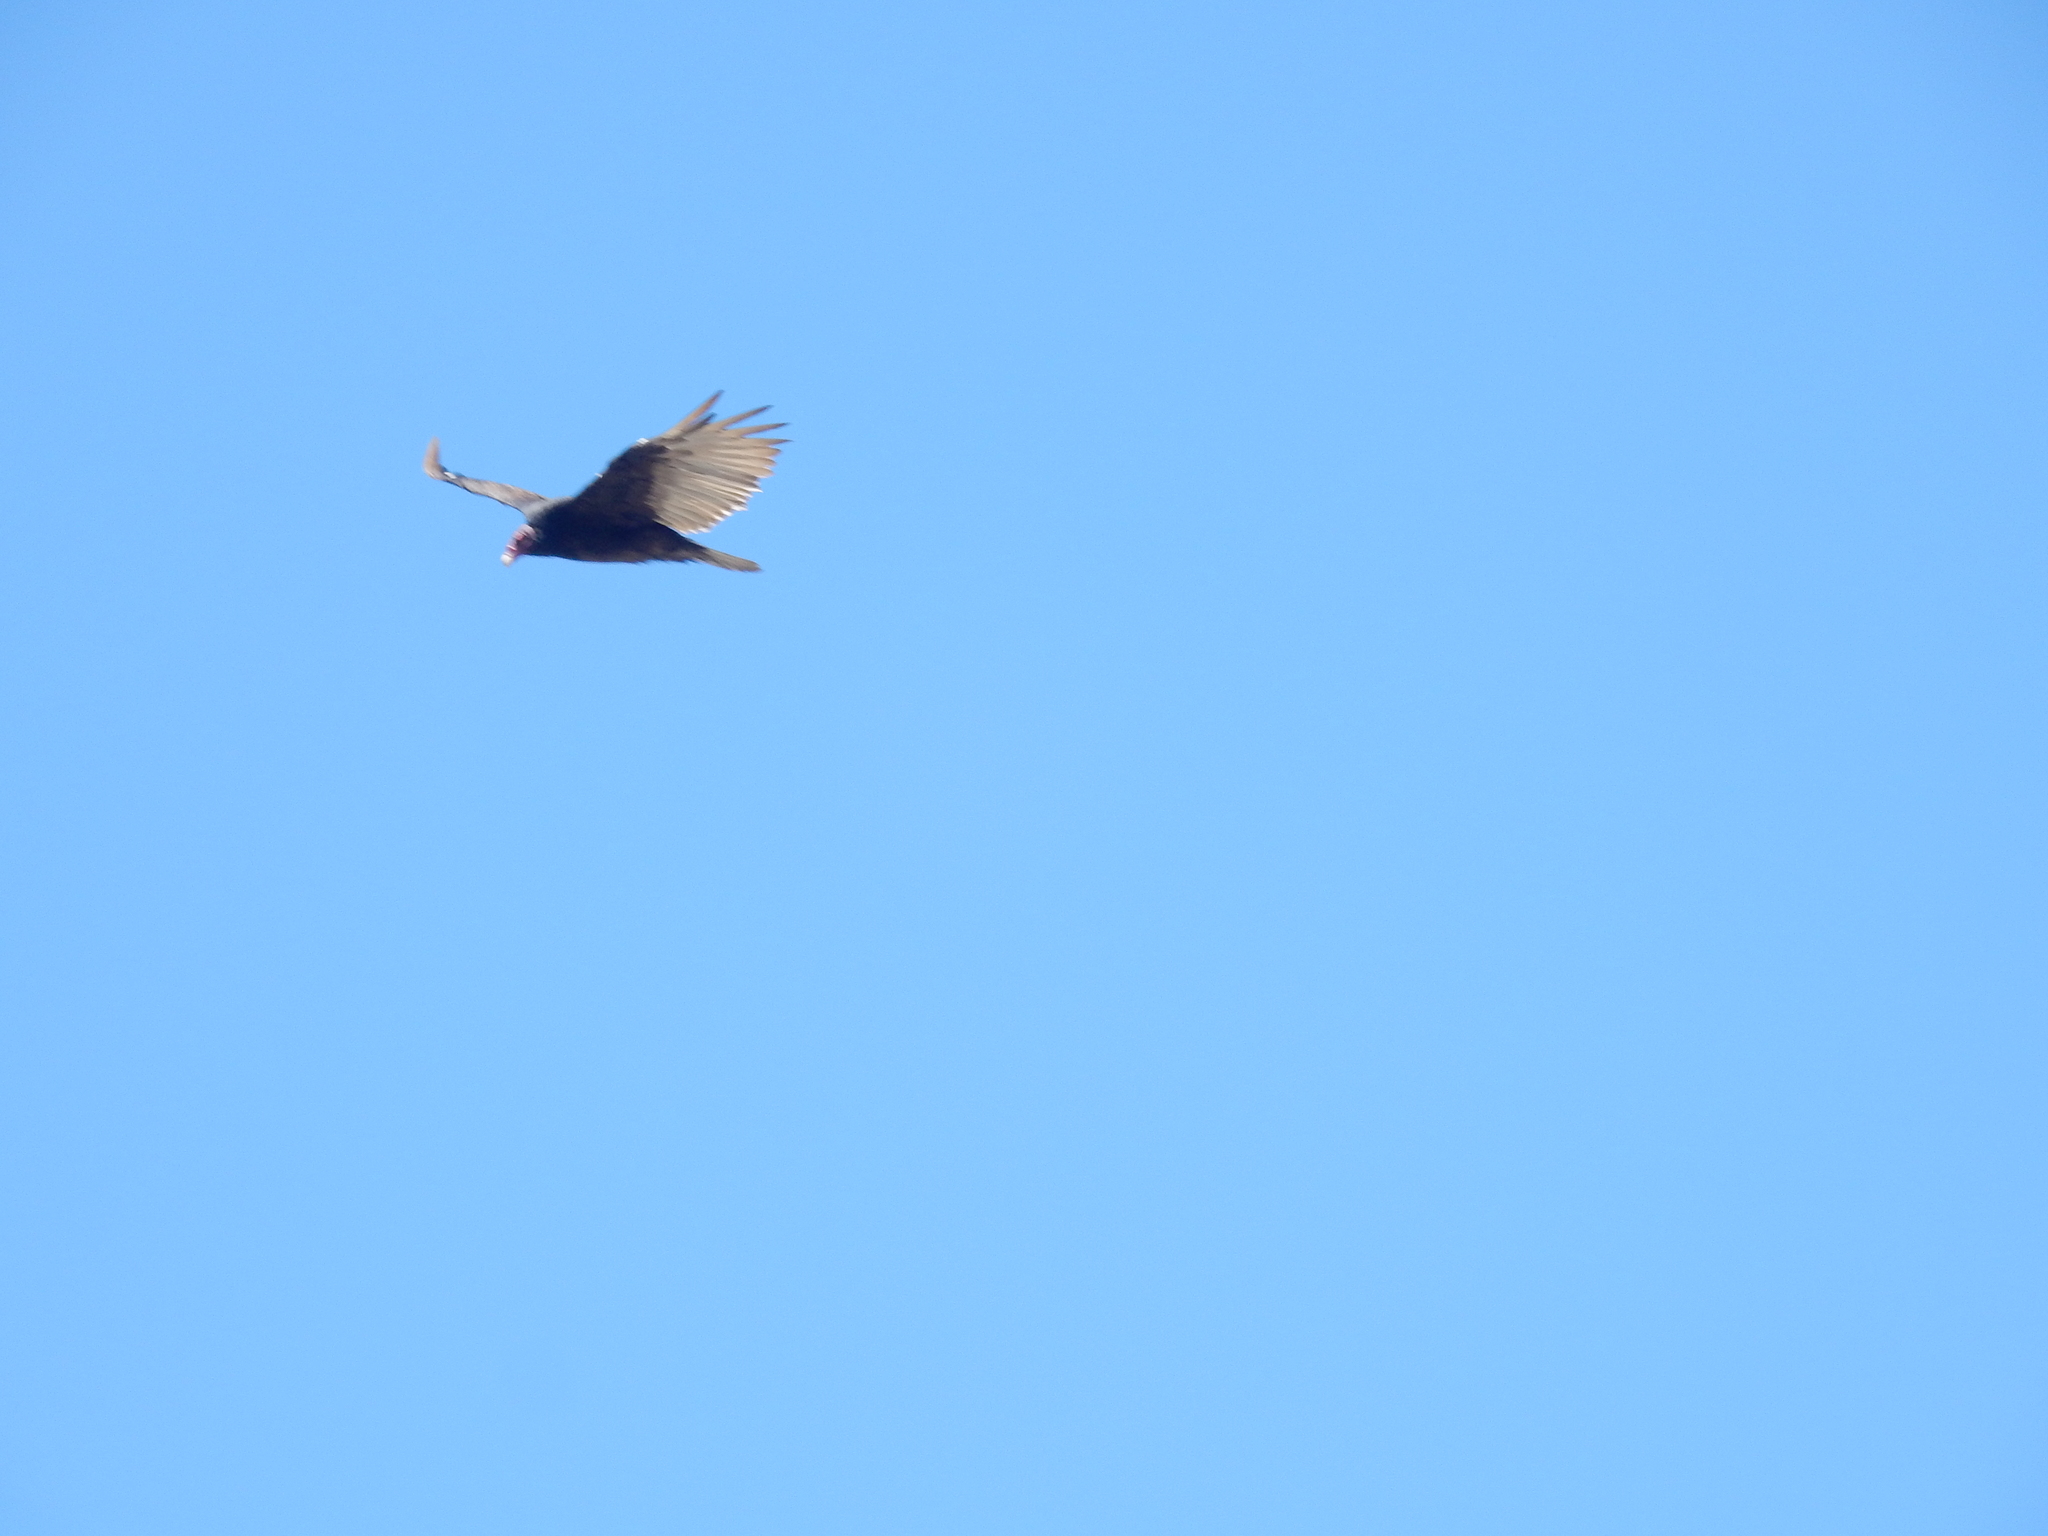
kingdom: Animalia
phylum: Chordata
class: Aves
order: Accipitriformes
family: Cathartidae
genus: Cathartes
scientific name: Cathartes aura
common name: Turkey vulture
